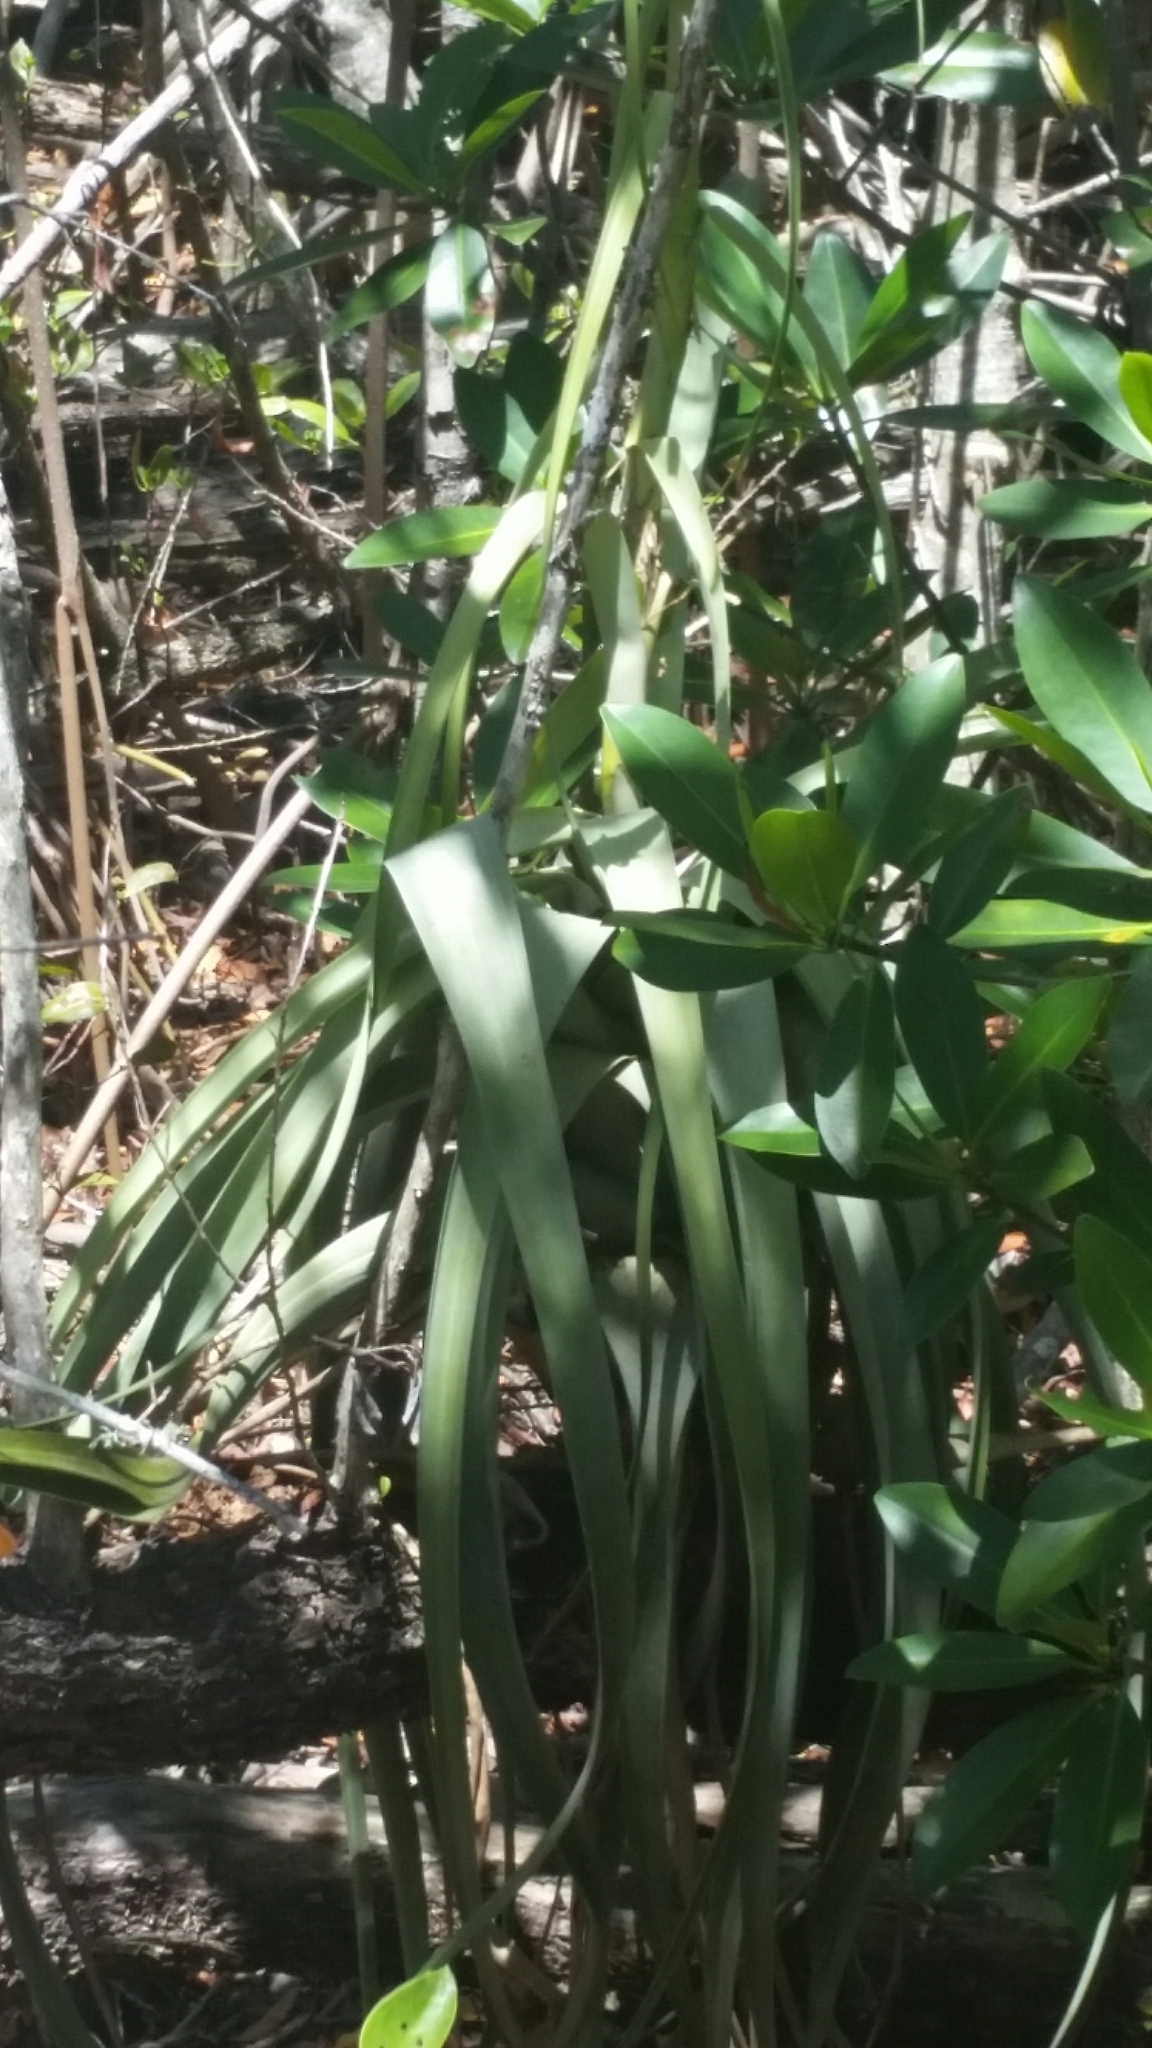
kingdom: Plantae
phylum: Tracheophyta
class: Liliopsida
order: Poales
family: Bromeliaceae
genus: Tillandsia
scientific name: Tillandsia utriculata
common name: Wild pine
